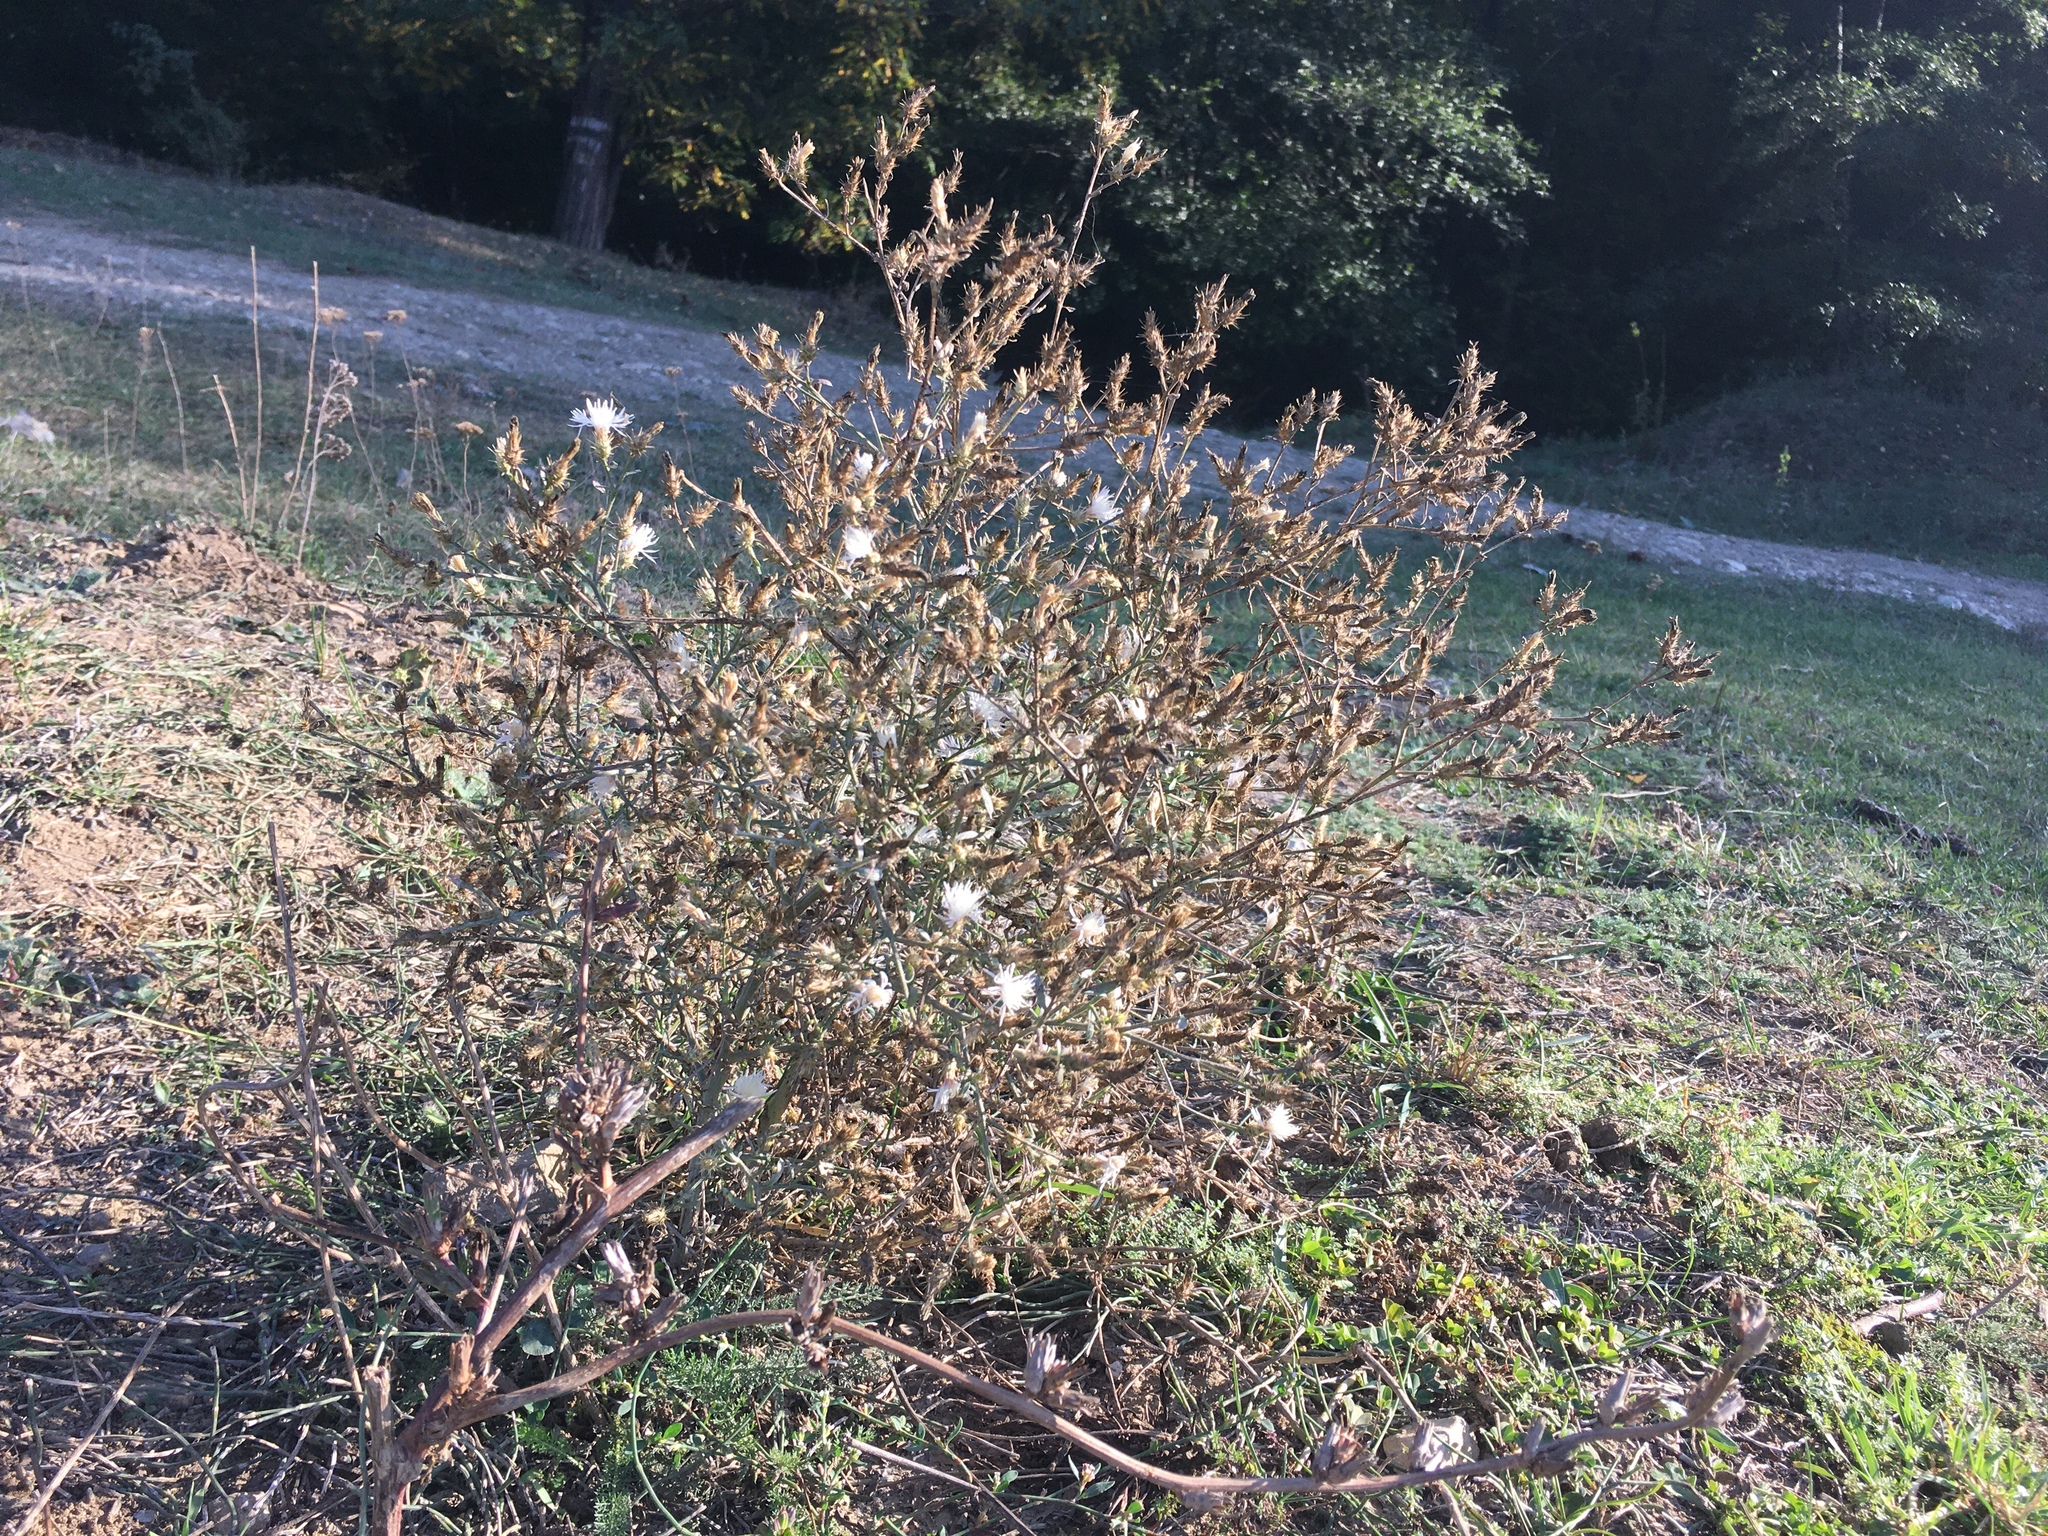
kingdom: Plantae
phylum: Tracheophyta
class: Magnoliopsida
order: Asterales
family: Asteraceae
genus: Centaurea
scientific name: Centaurea diffusa
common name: Diffuse knapweed
